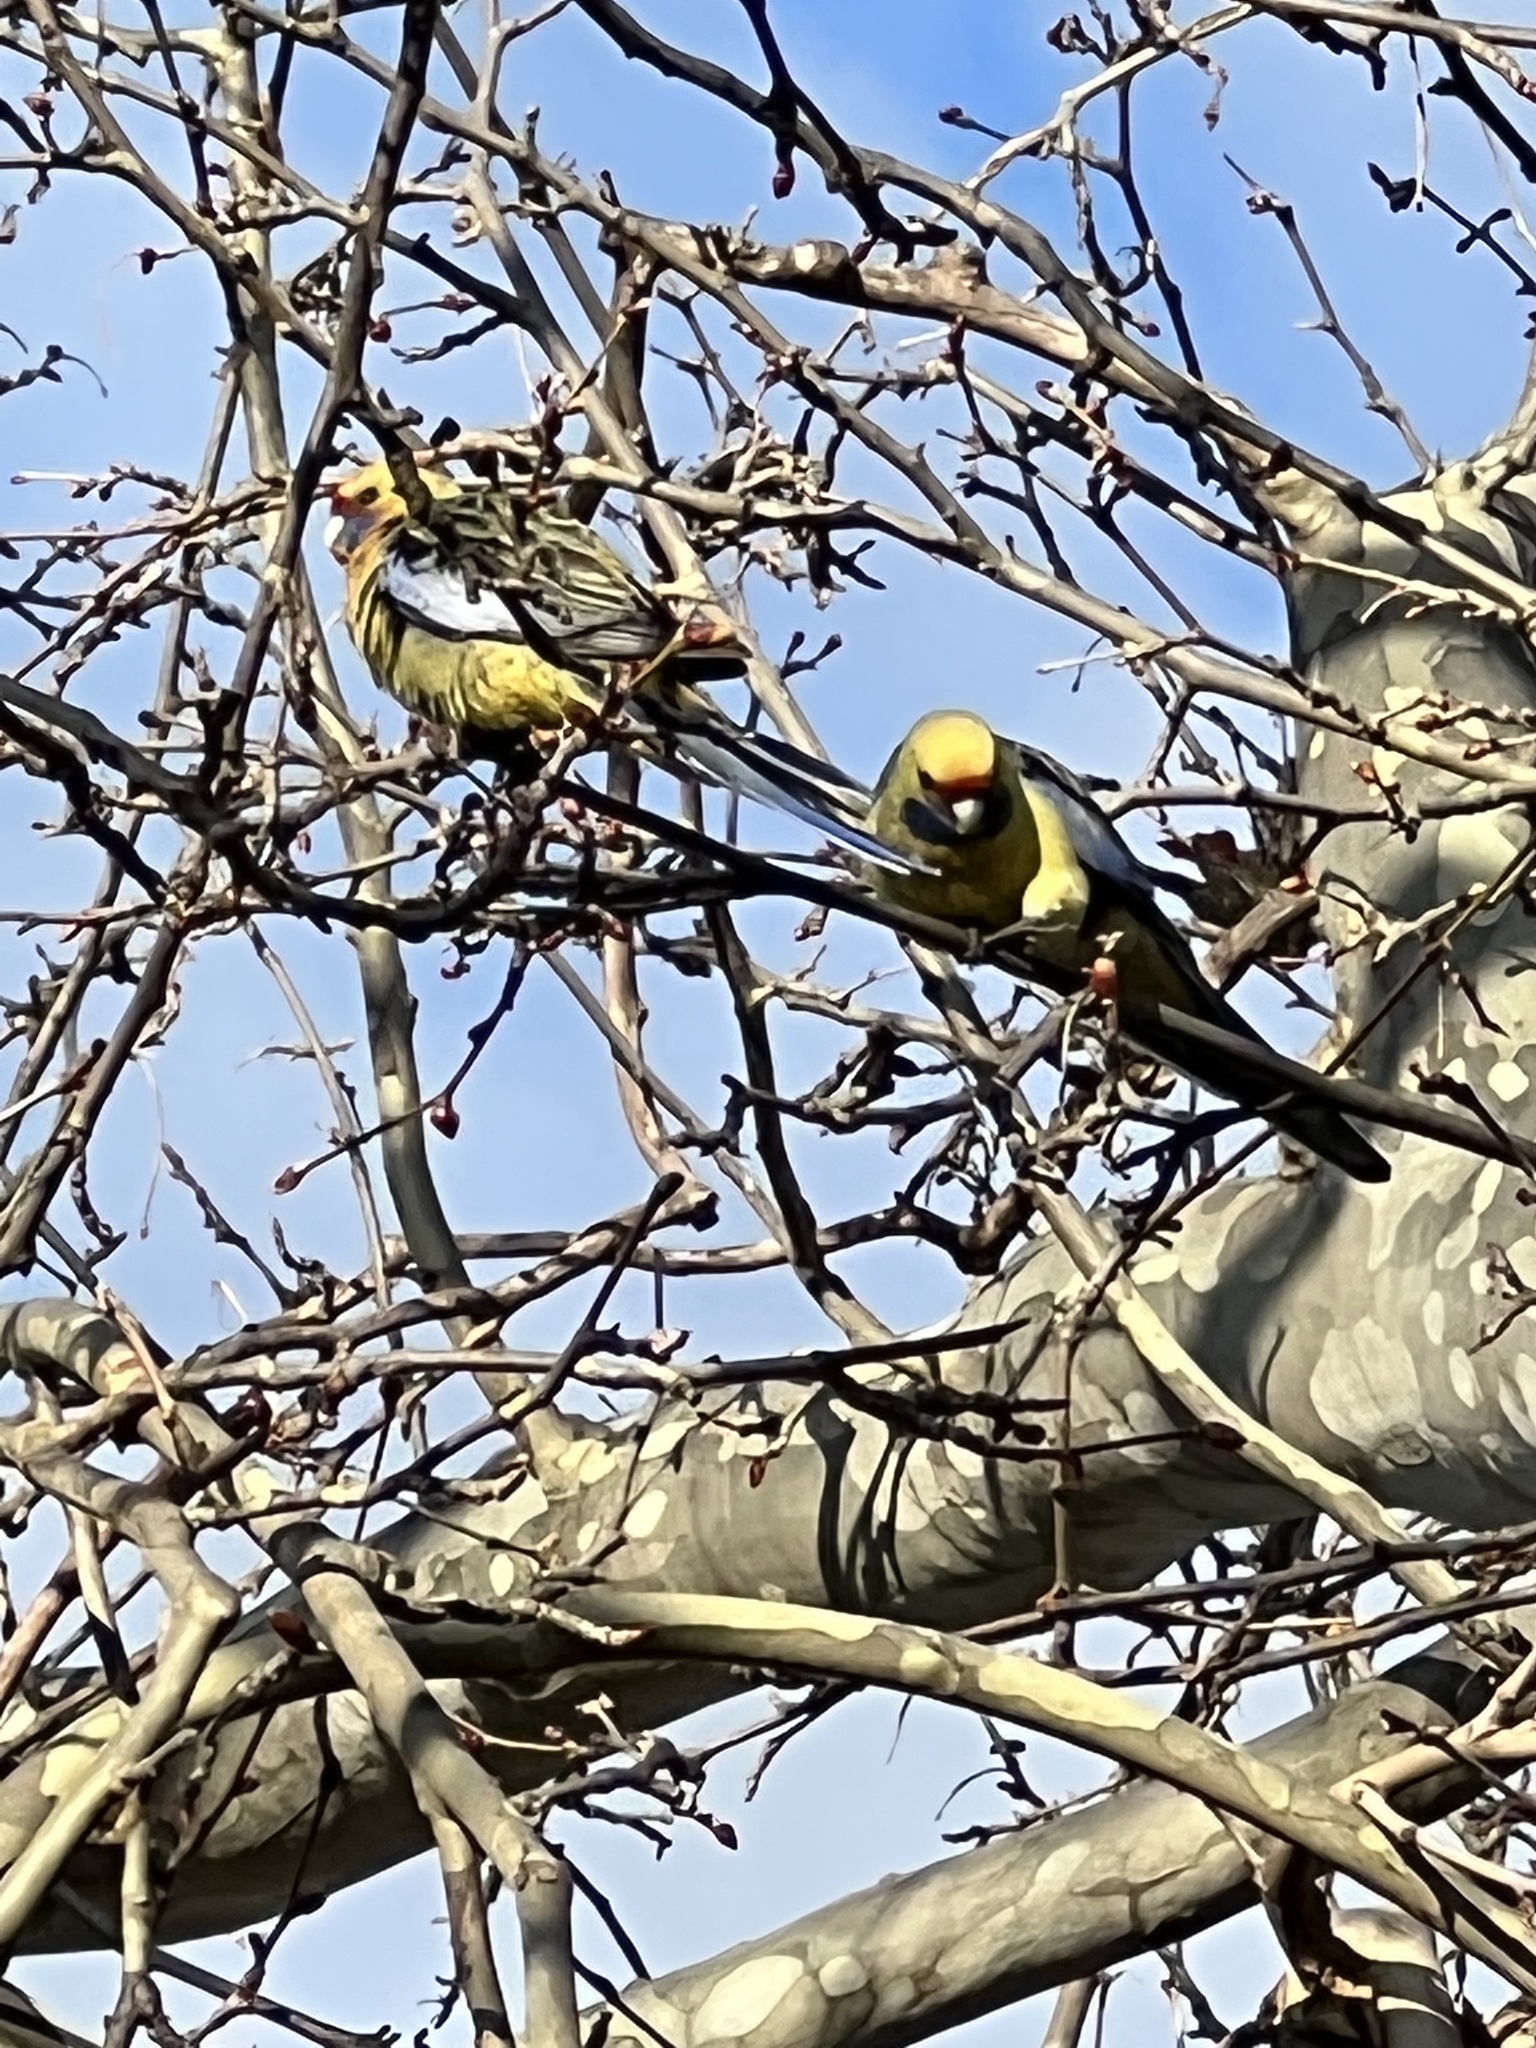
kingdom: Animalia
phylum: Chordata
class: Aves
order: Psittaciformes
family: Psittacidae
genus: Platycercus
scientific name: Platycercus elegans
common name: Crimson rosella
